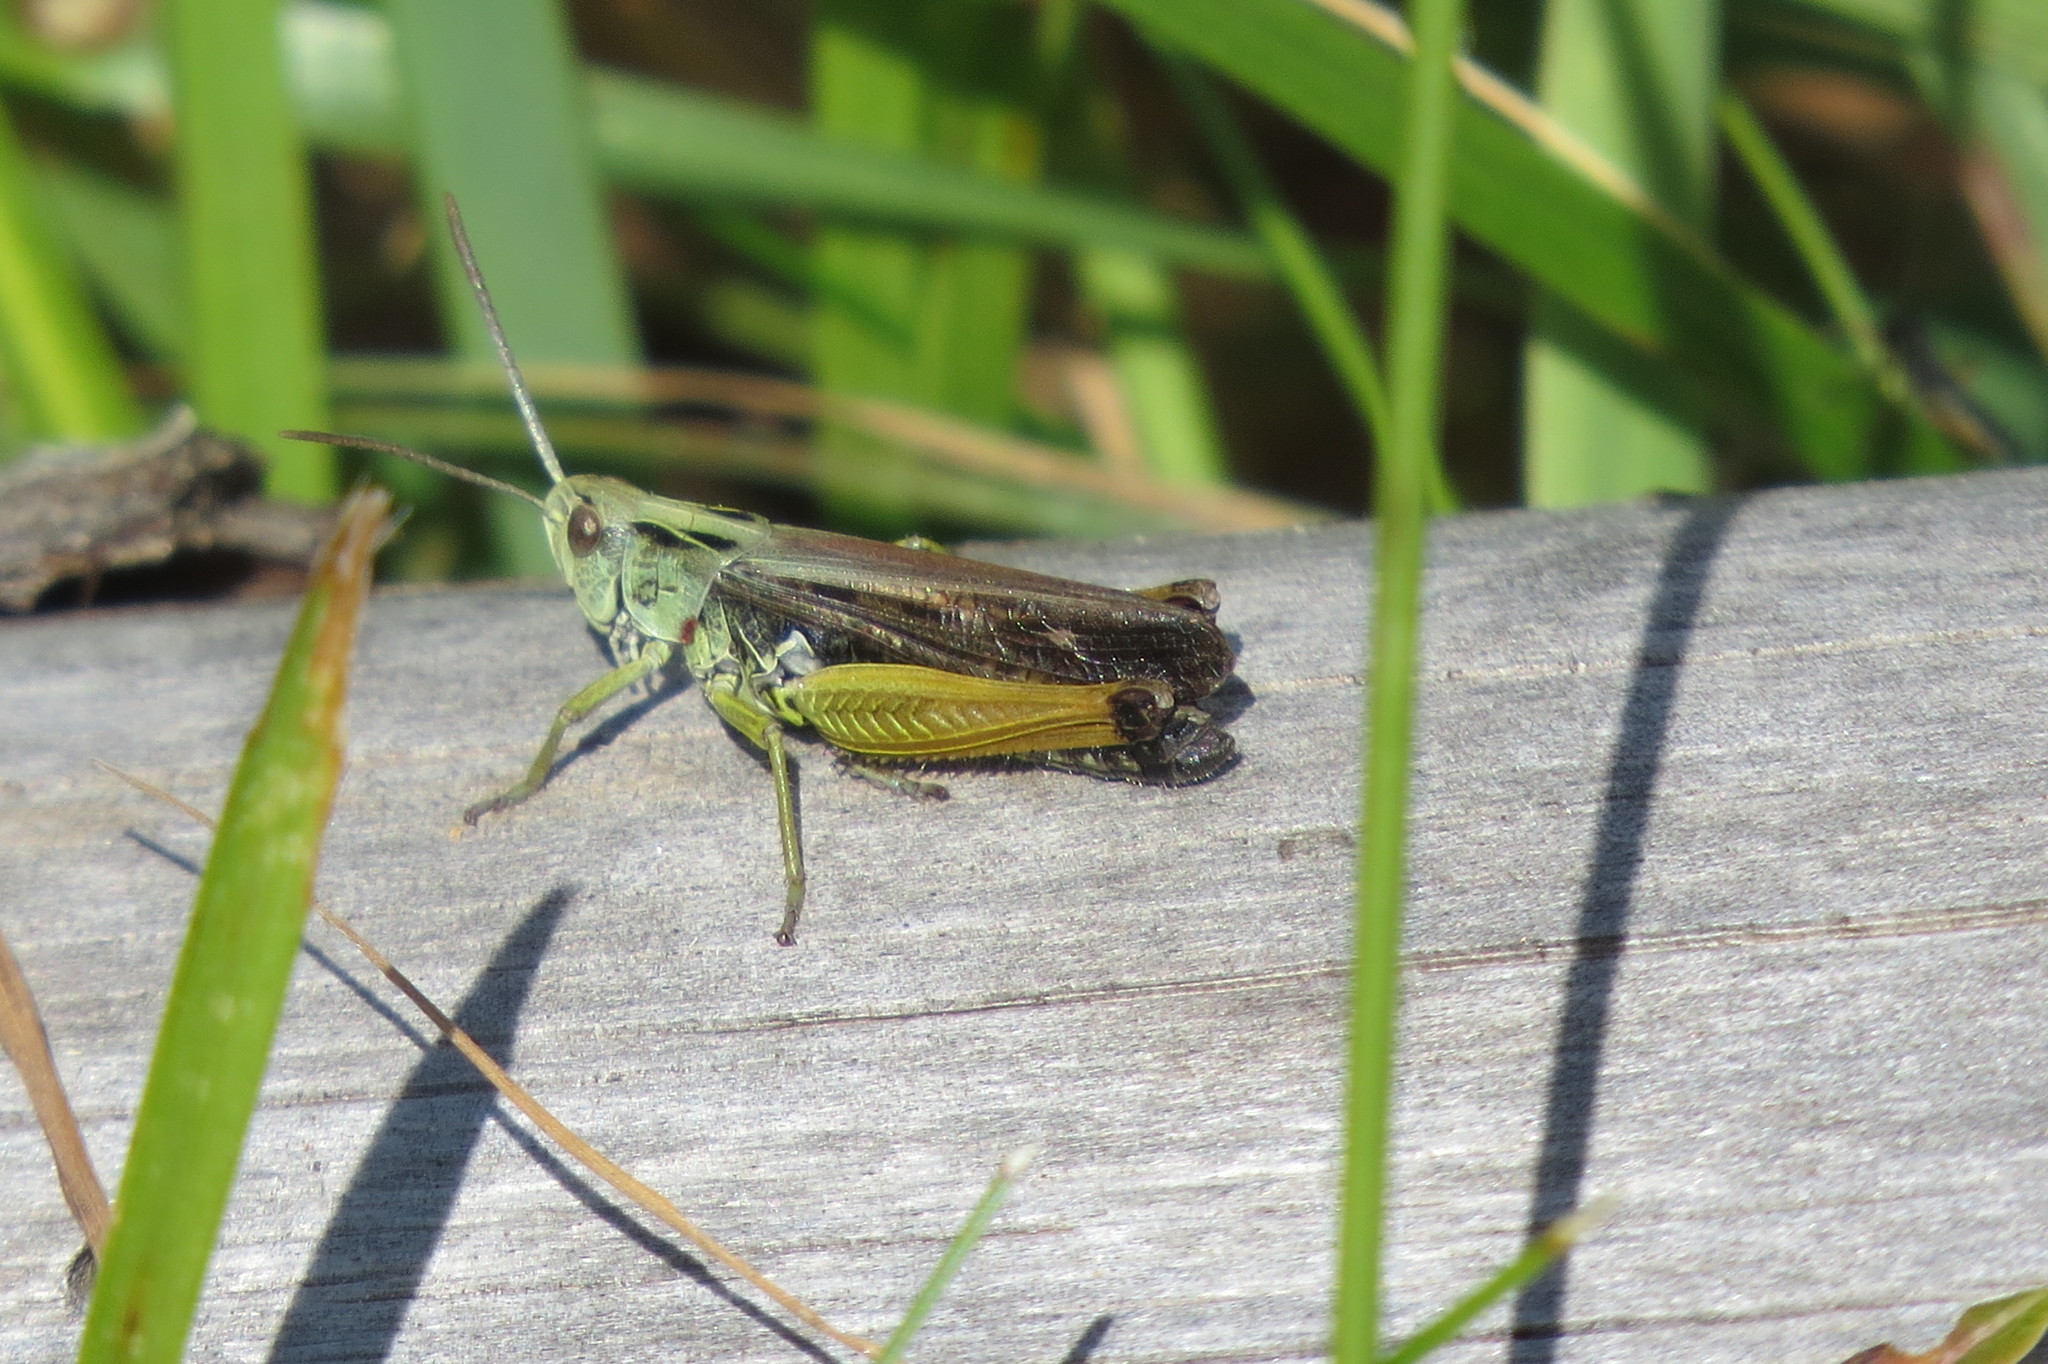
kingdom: Animalia
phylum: Arthropoda
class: Insecta
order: Orthoptera
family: Acrididae
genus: Omocestus
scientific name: Omocestus viridulus
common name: Common green grasshopper
